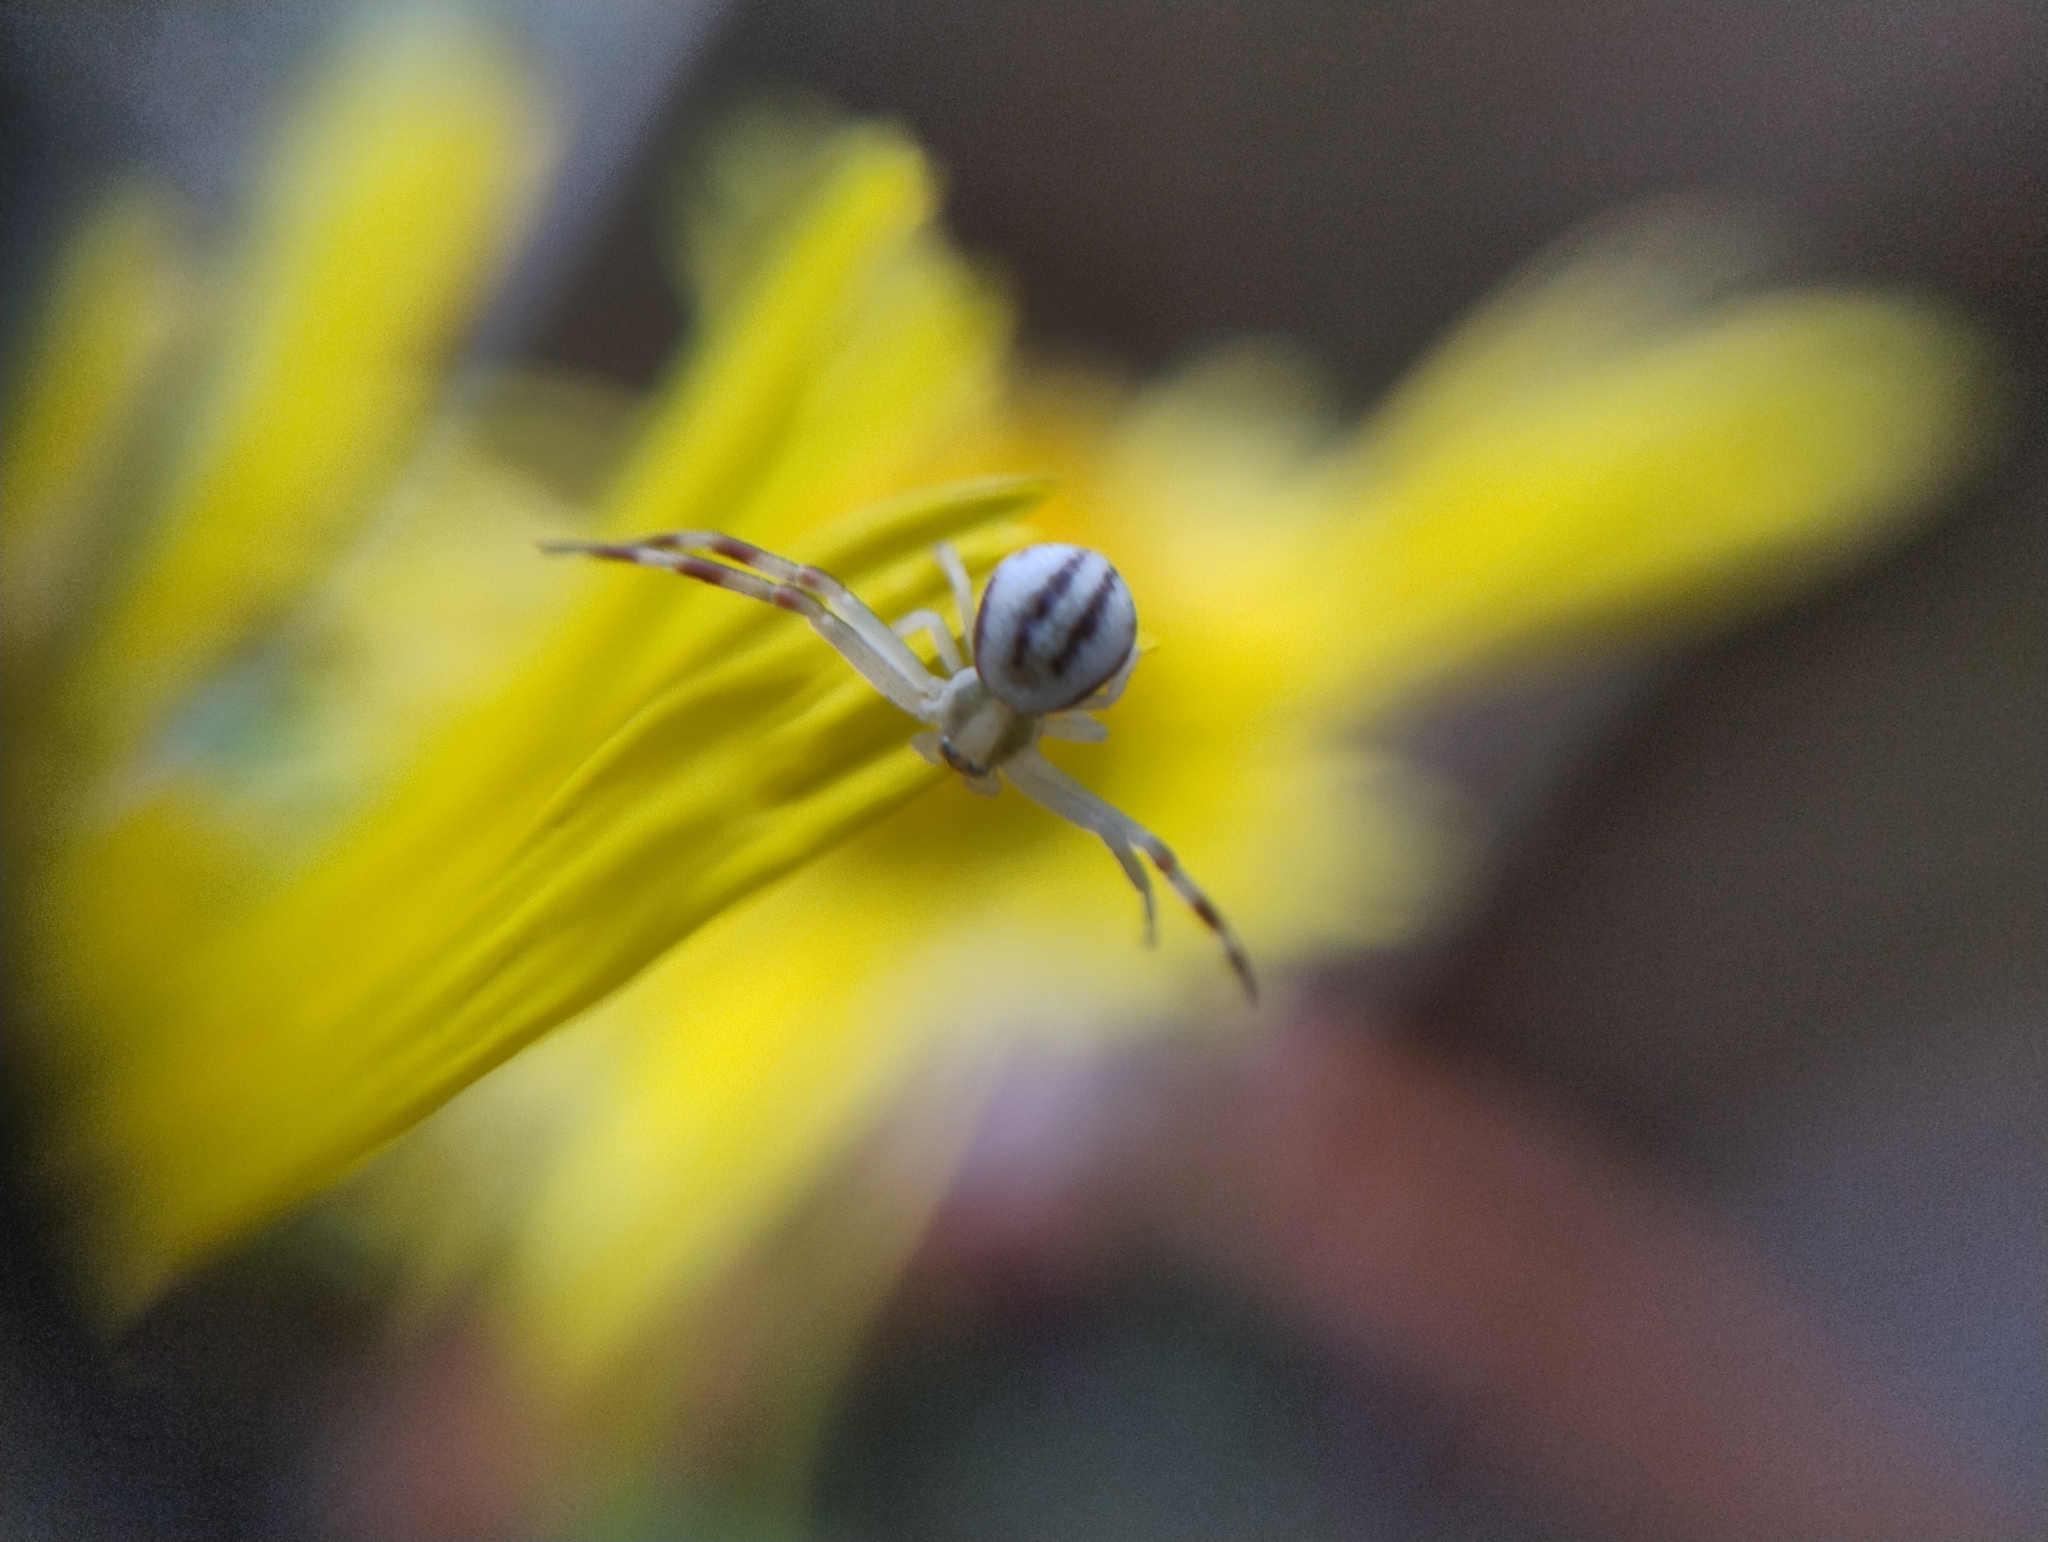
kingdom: Animalia
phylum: Arthropoda
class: Arachnida
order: Araneae
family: Thomisidae
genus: Misumena
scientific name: Misumena vatia
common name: Goldenrod crab spider
